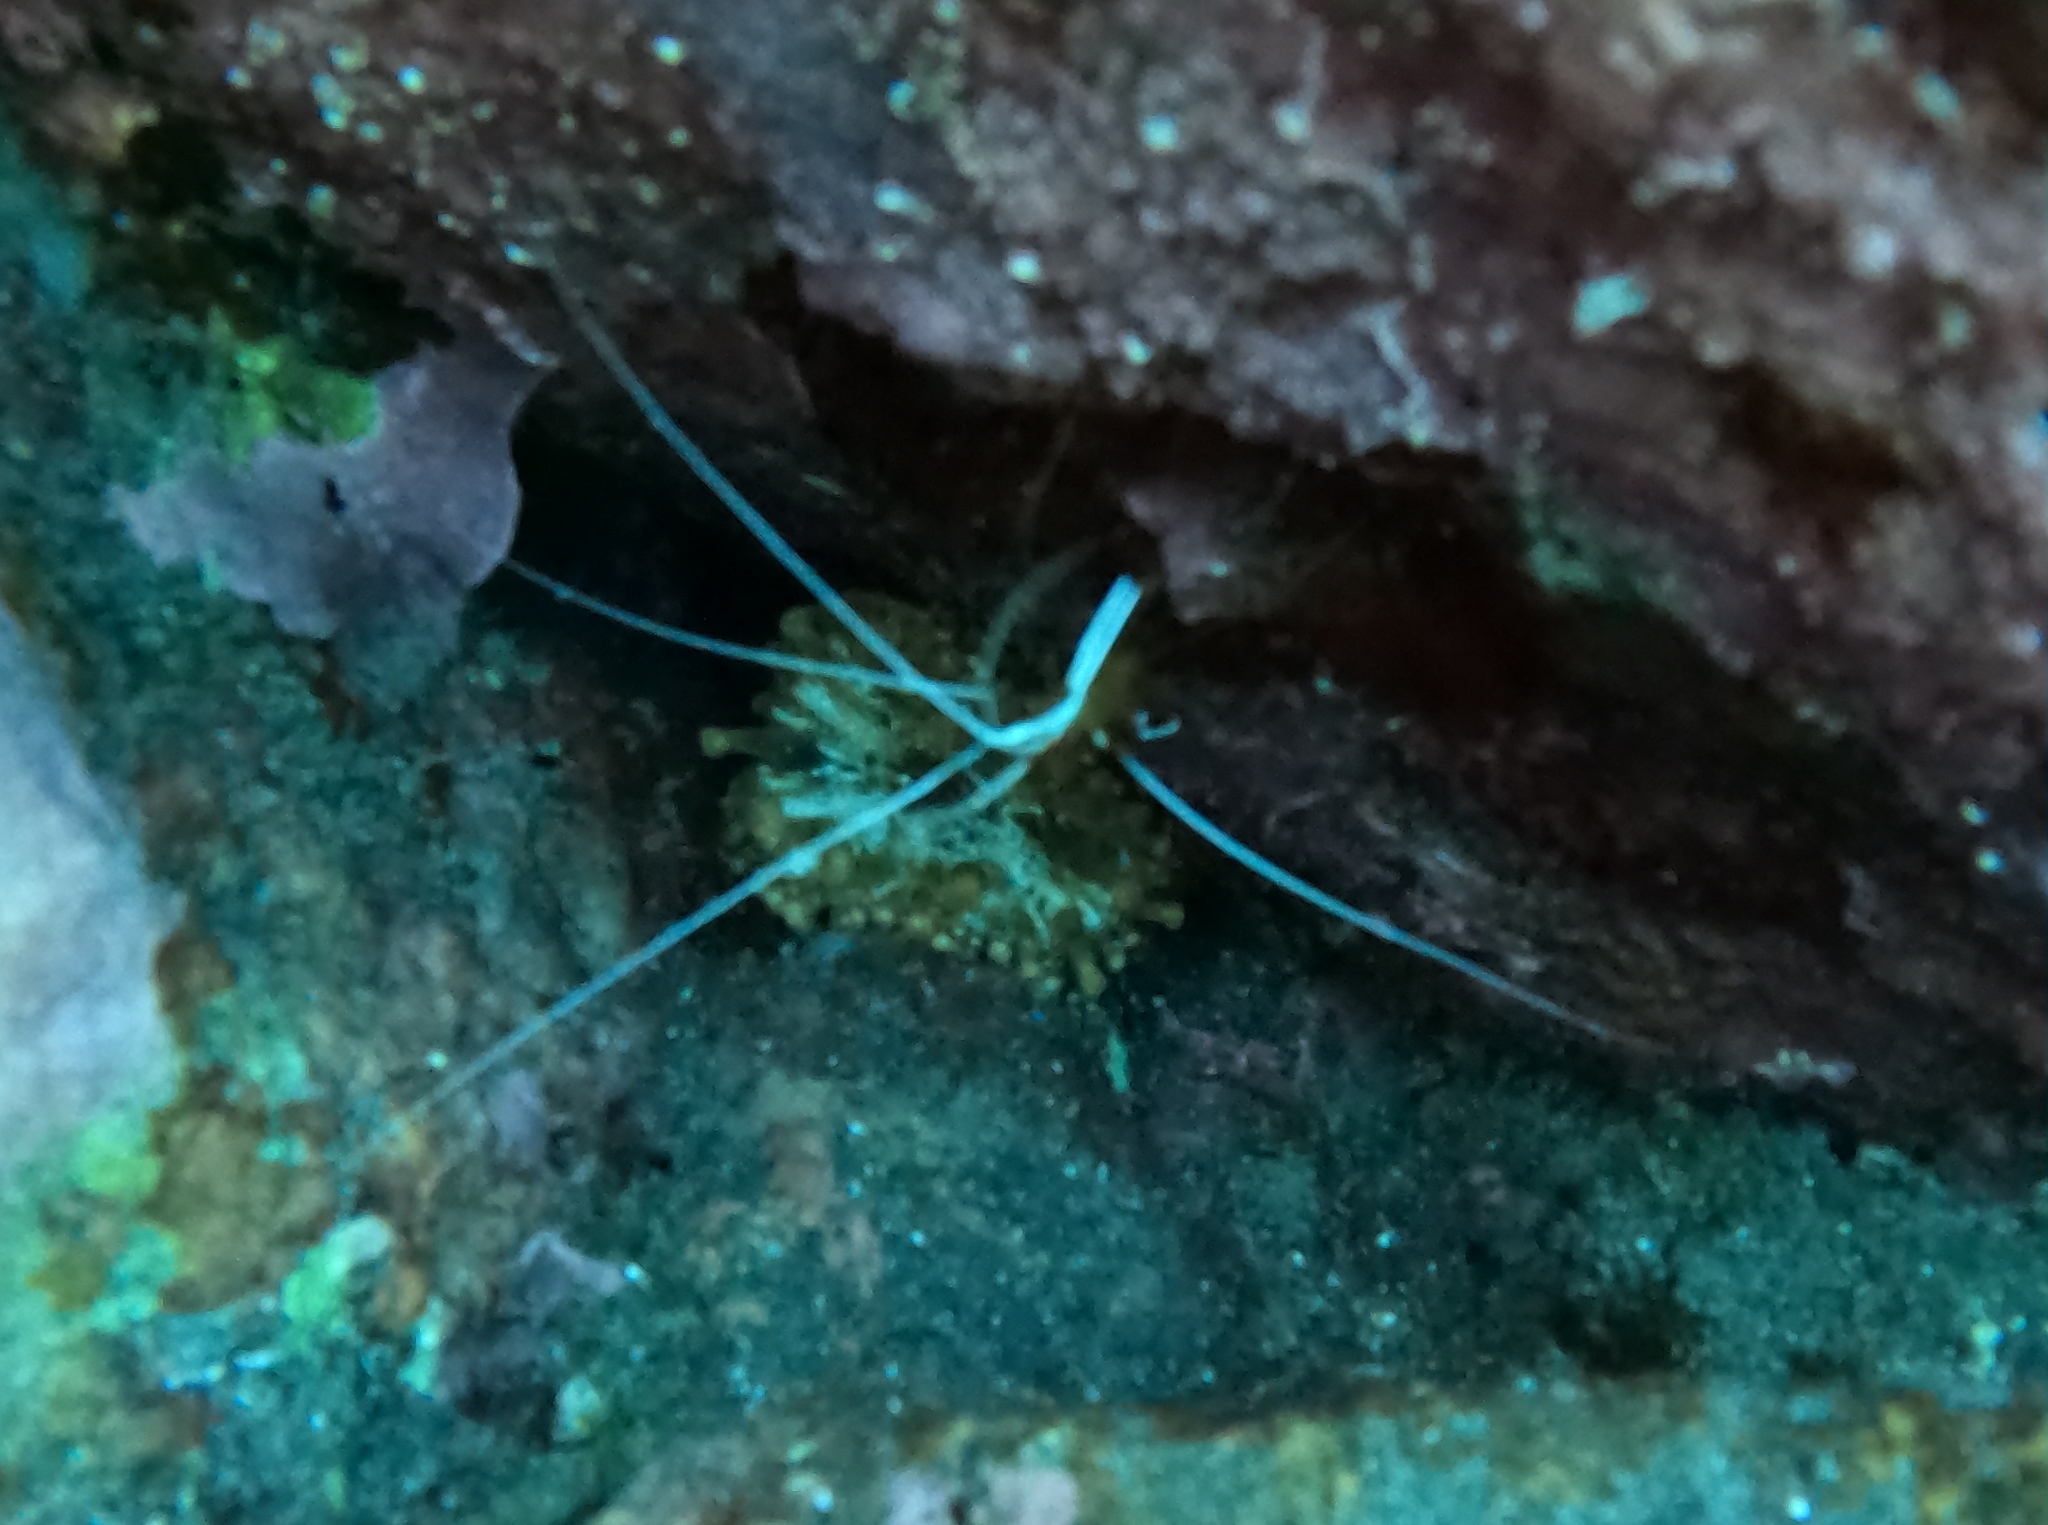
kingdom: Animalia
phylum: Arthropoda
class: Malacostraca
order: Decapoda
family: Lysmatidae
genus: Lysmata
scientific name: Lysmata grabhami
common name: Scarlet-striped cleaning shrimp
